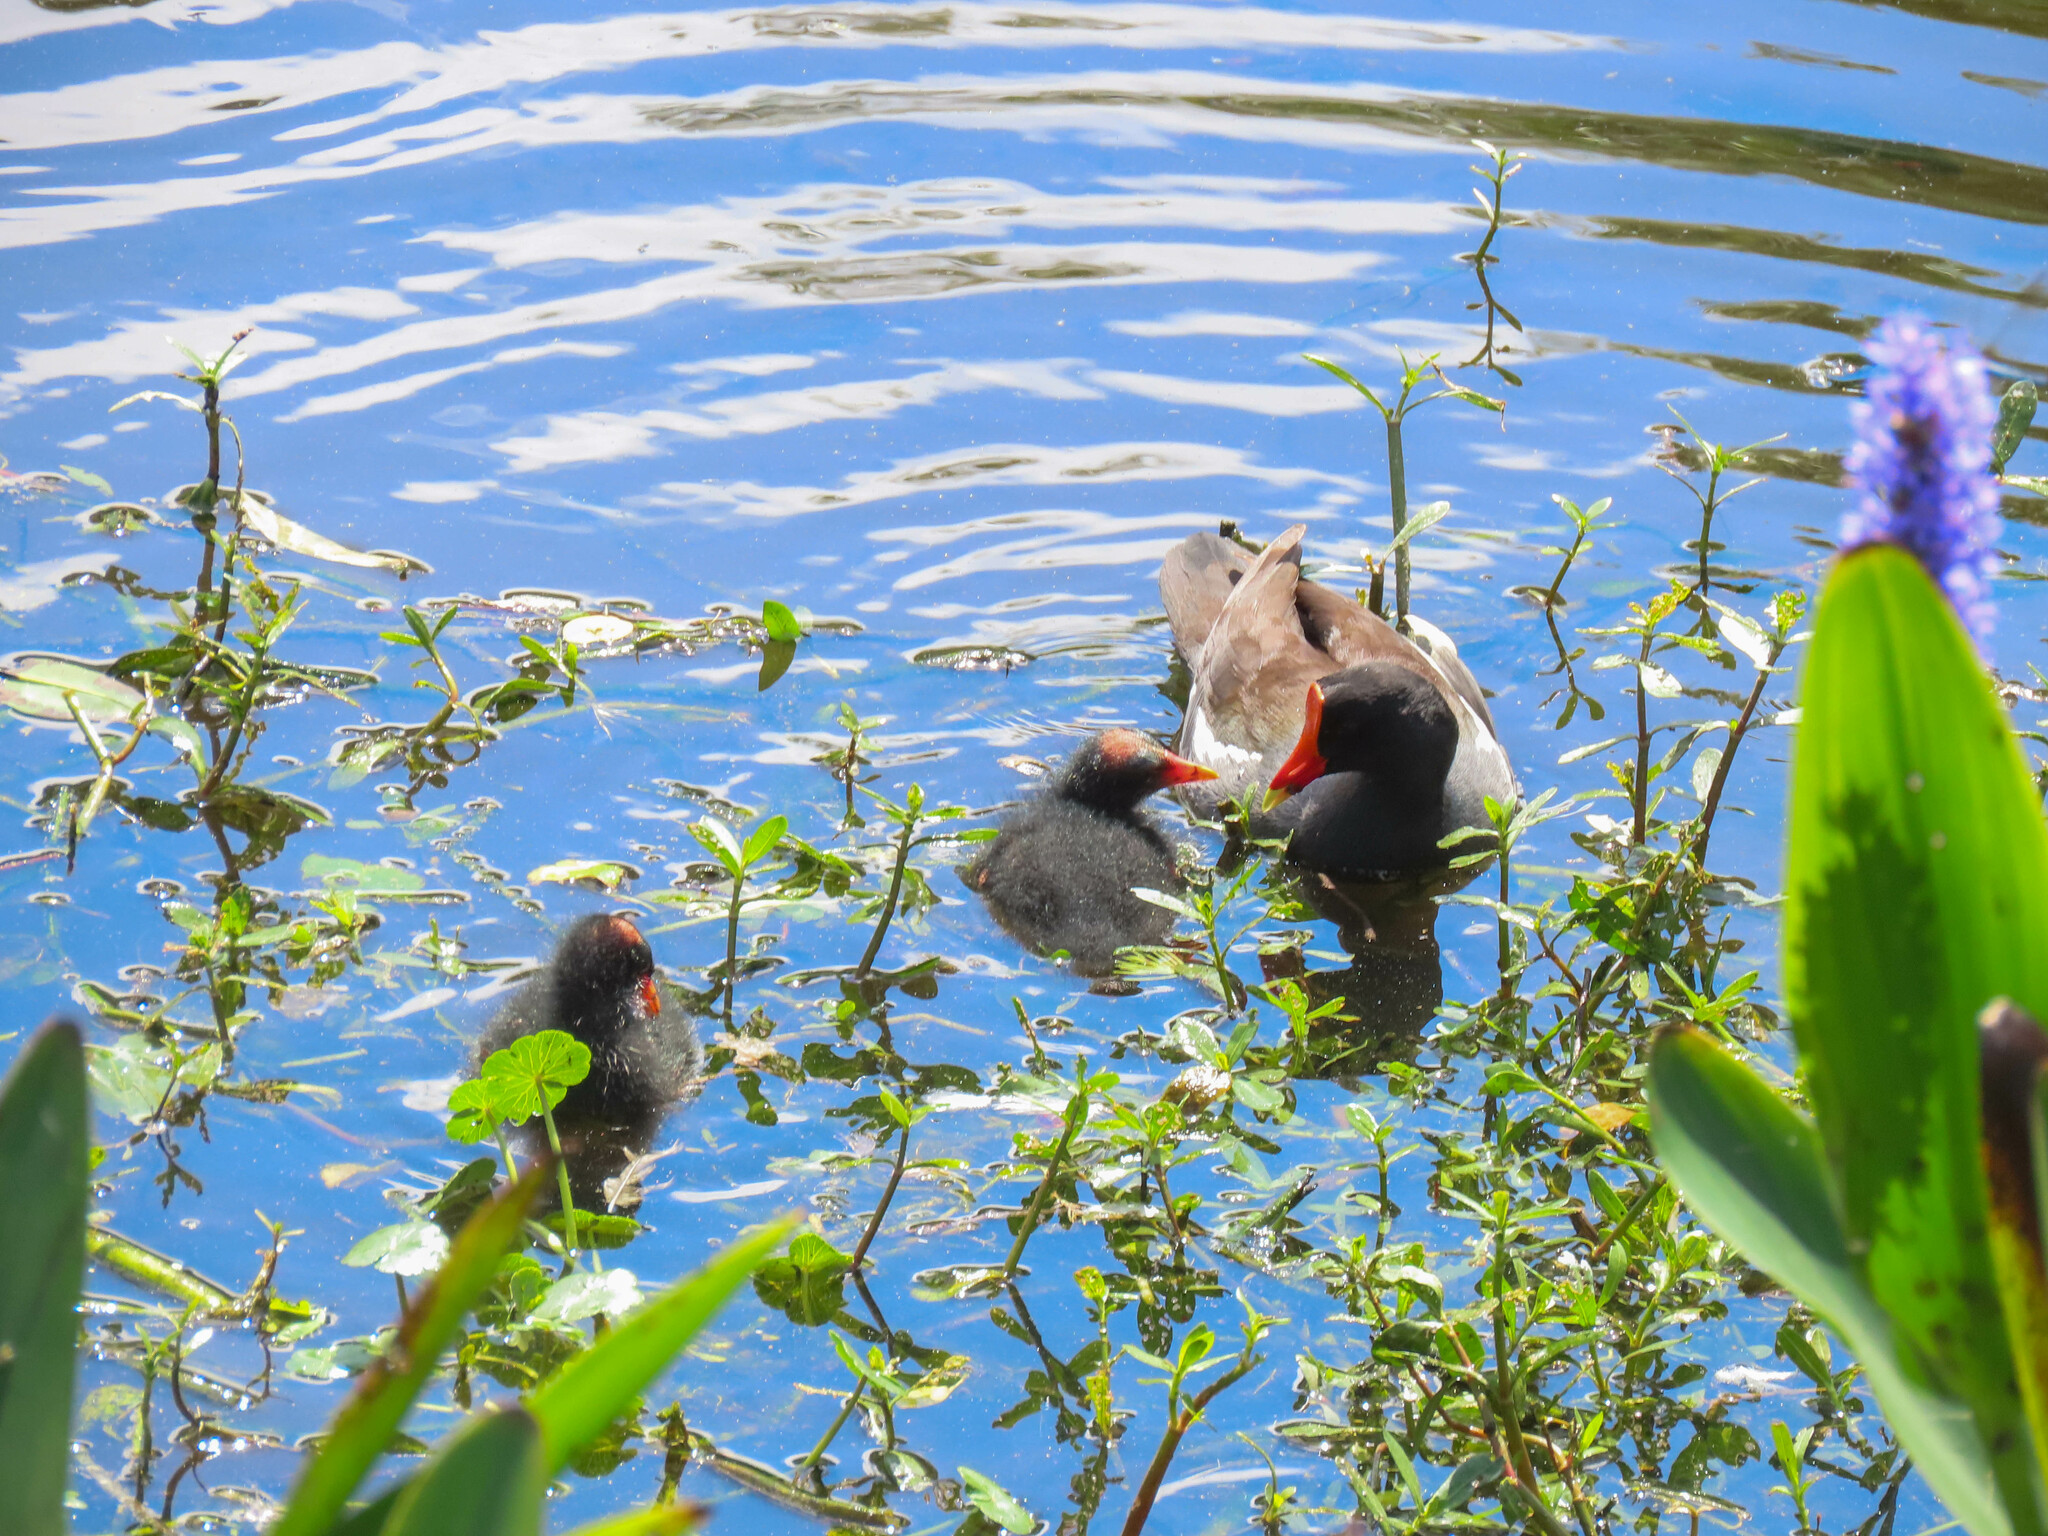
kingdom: Animalia
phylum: Chordata
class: Aves
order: Gruiformes
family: Rallidae
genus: Gallinula
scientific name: Gallinula chloropus
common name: Common moorhen
